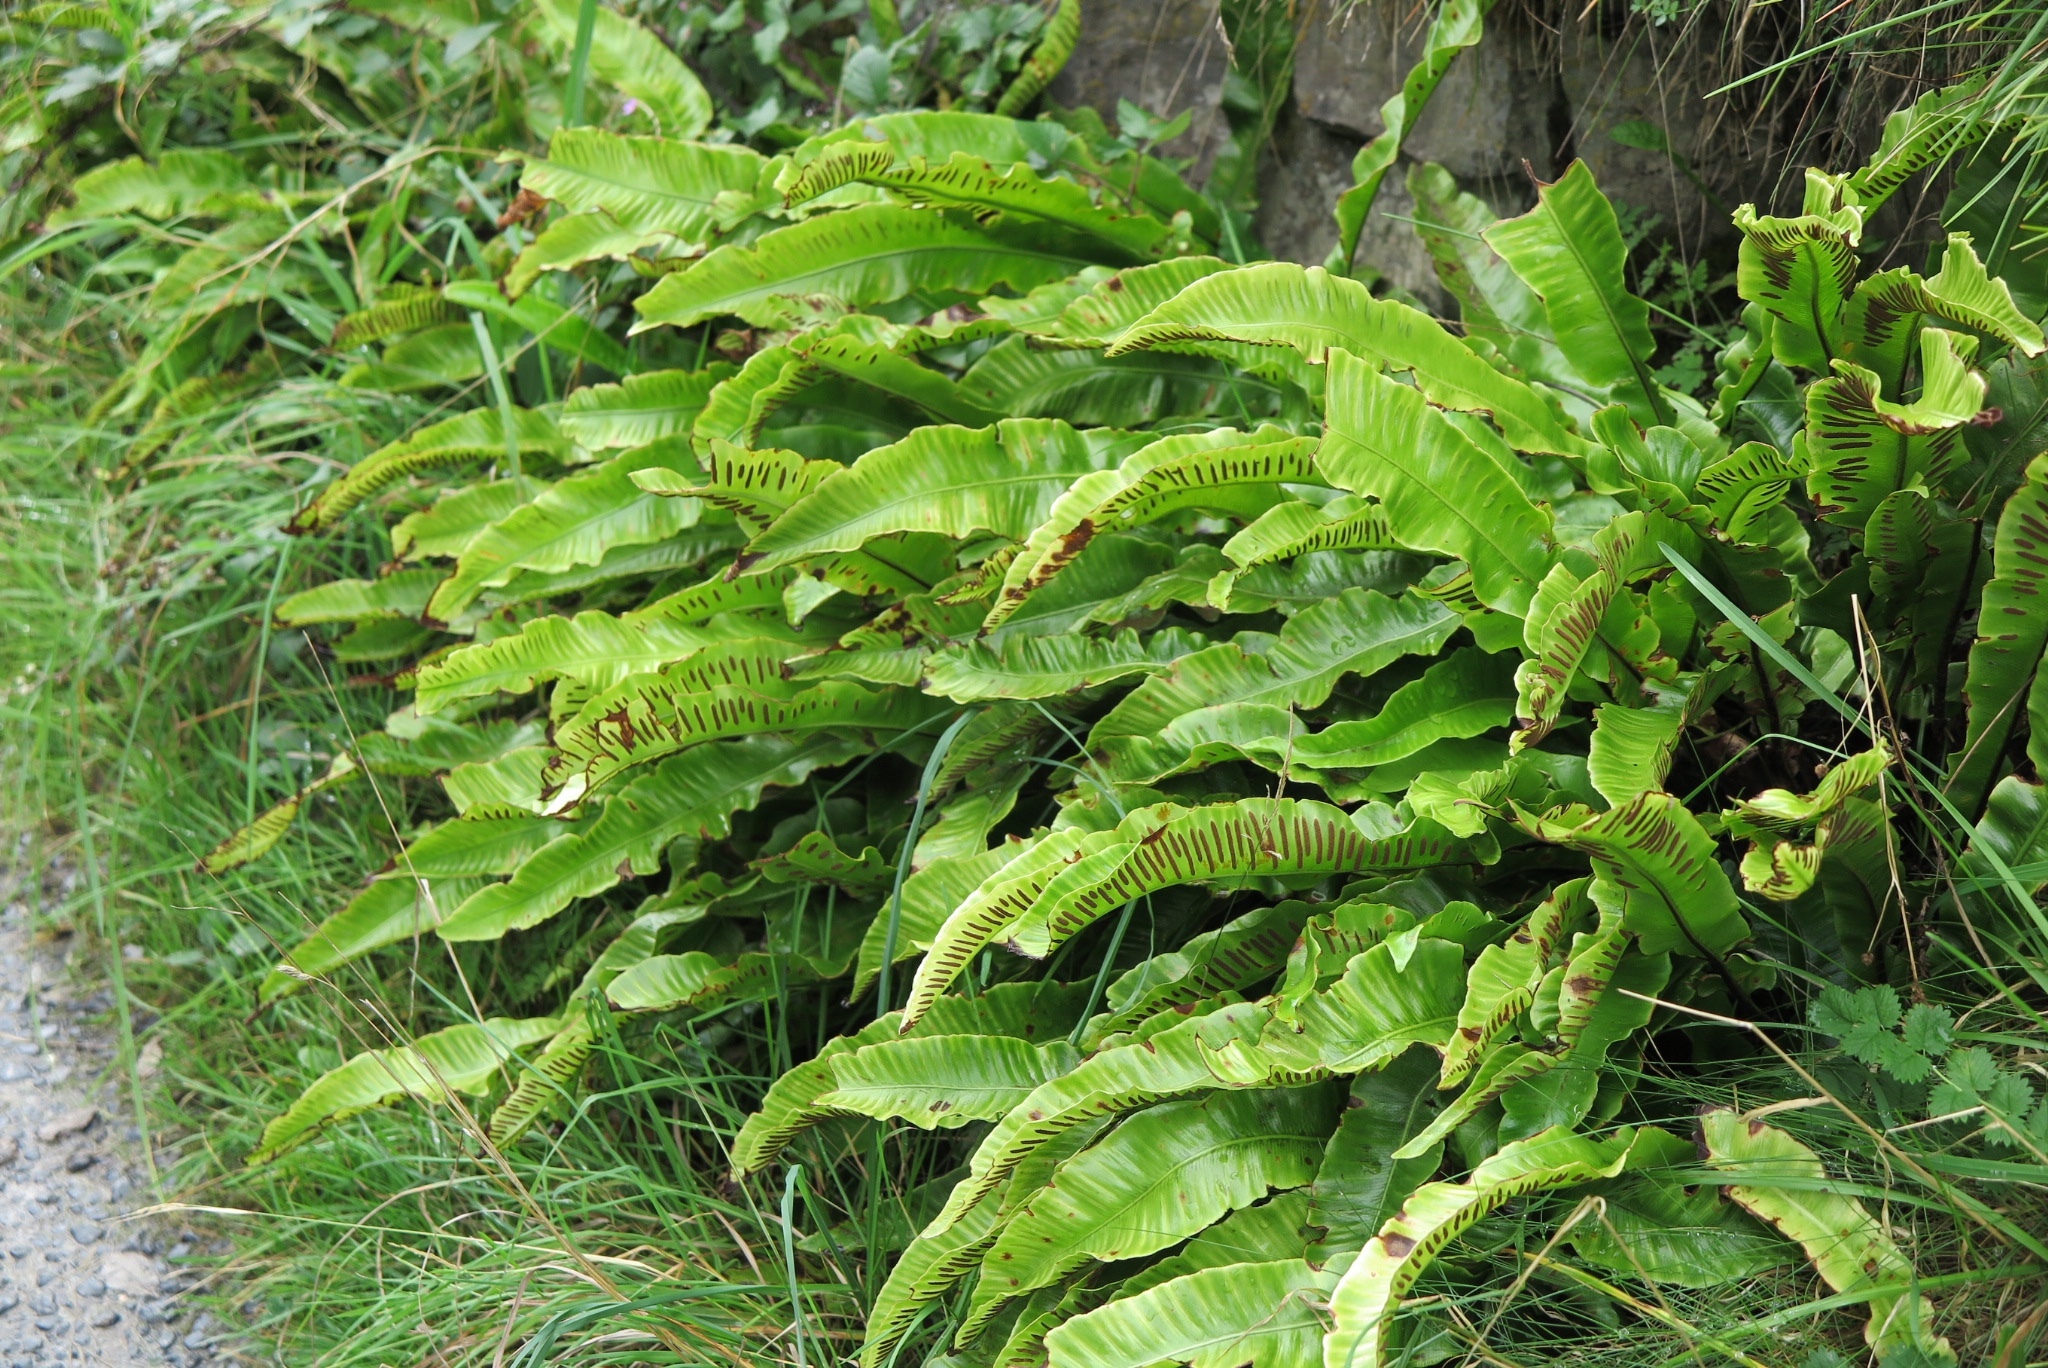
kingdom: Plantae
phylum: Tracheophyta
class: Polypodiopsida
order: Polypodiales
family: Aspleniaceae
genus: Asplenium
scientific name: Asplenium scolopendrium
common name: Hart's-tongue fern
